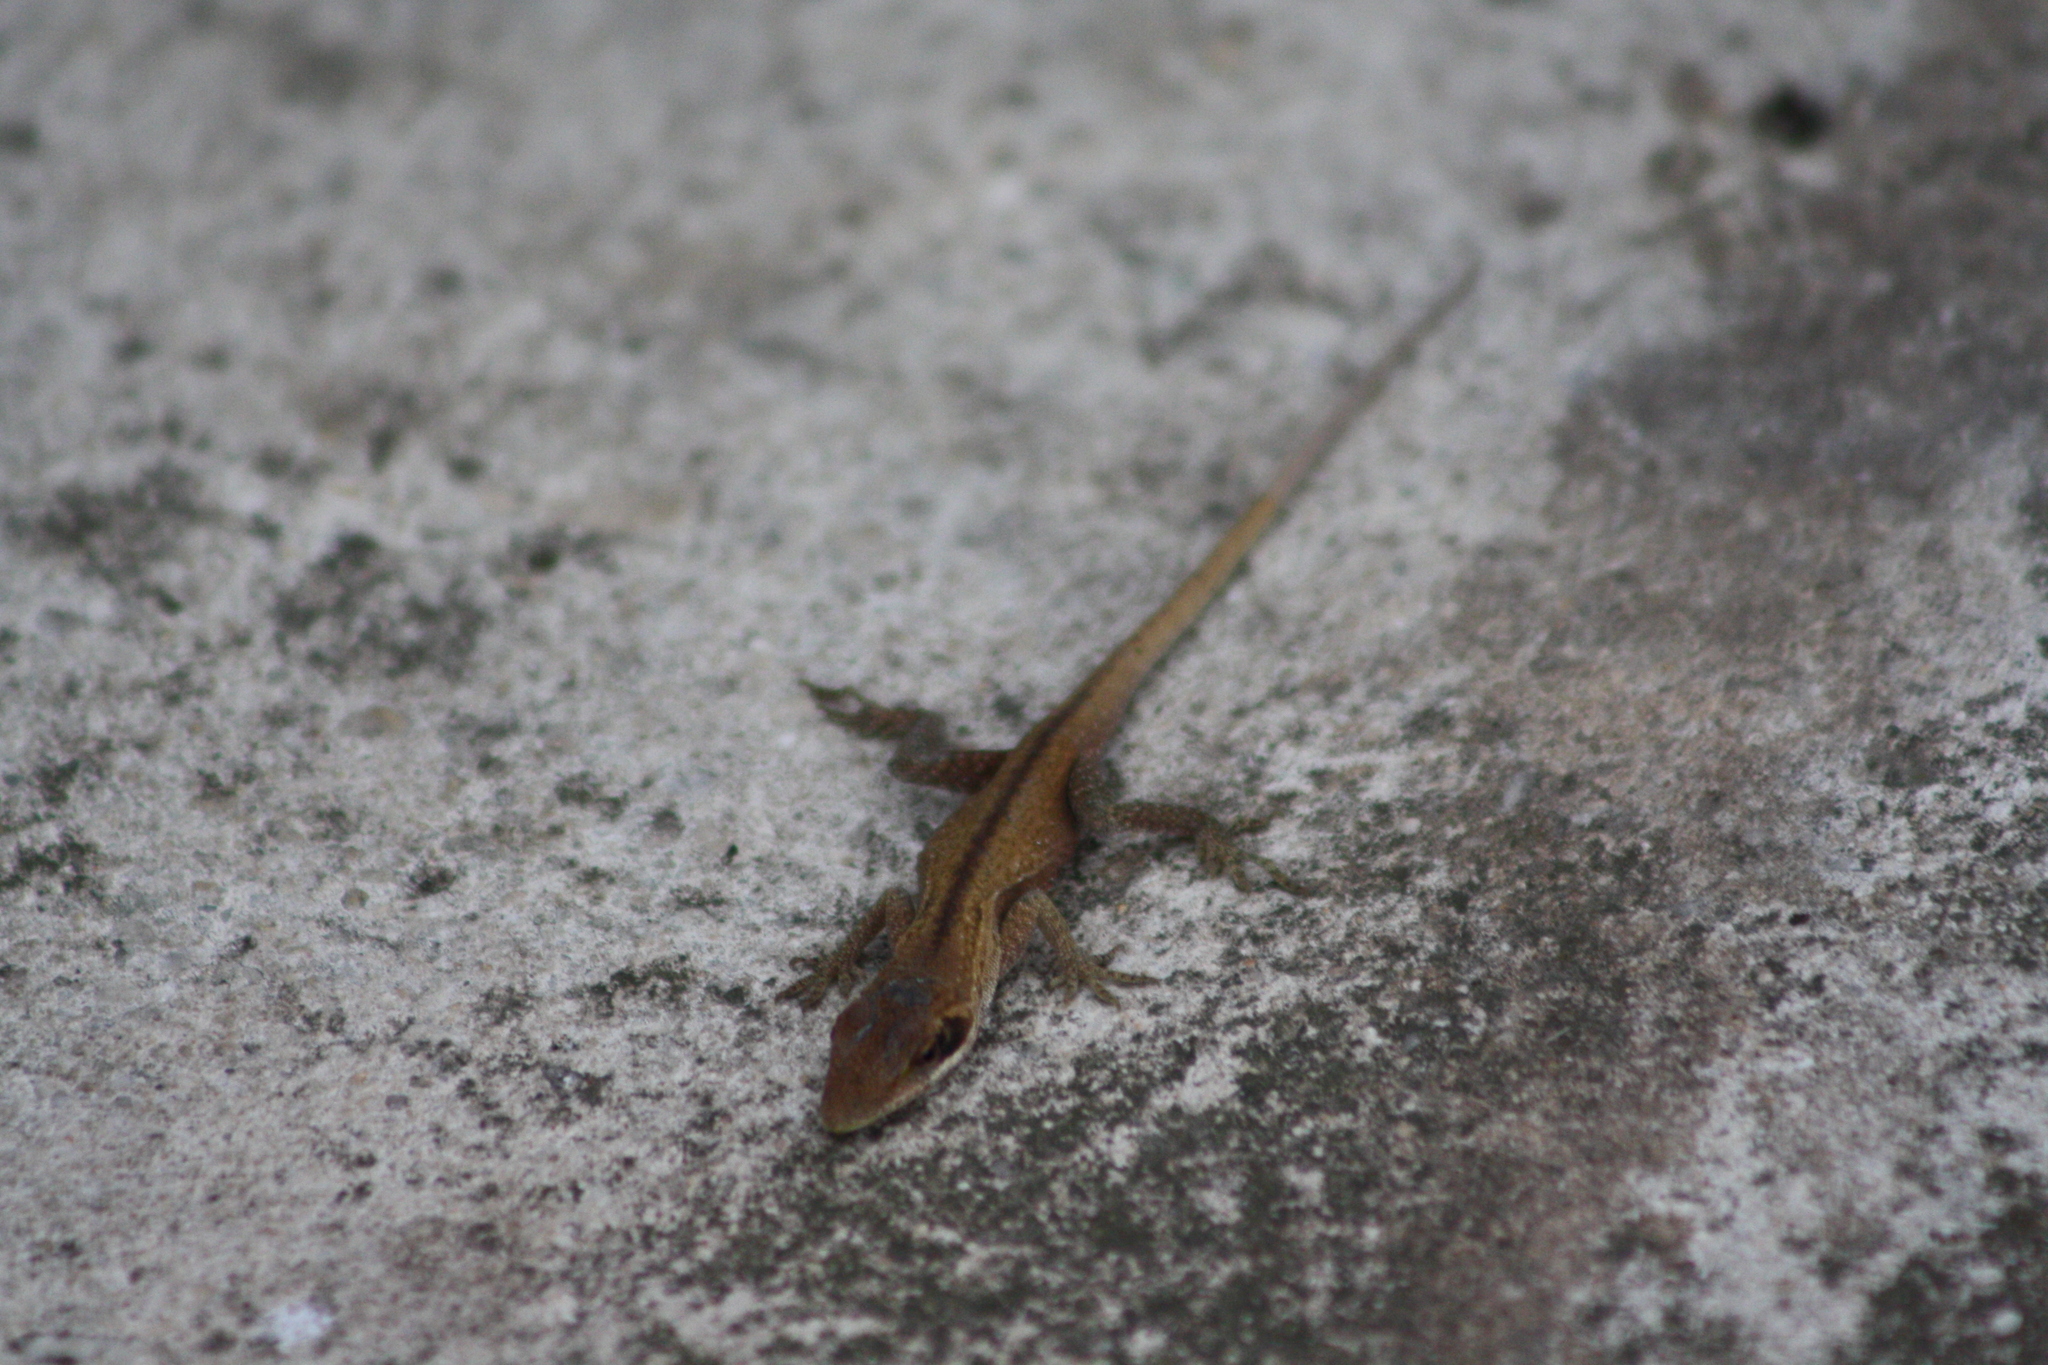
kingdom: Animalia
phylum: Chordata
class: Squamata
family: Dactyloidae
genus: Anolis
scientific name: Anolis carolinensis
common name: Green anole
